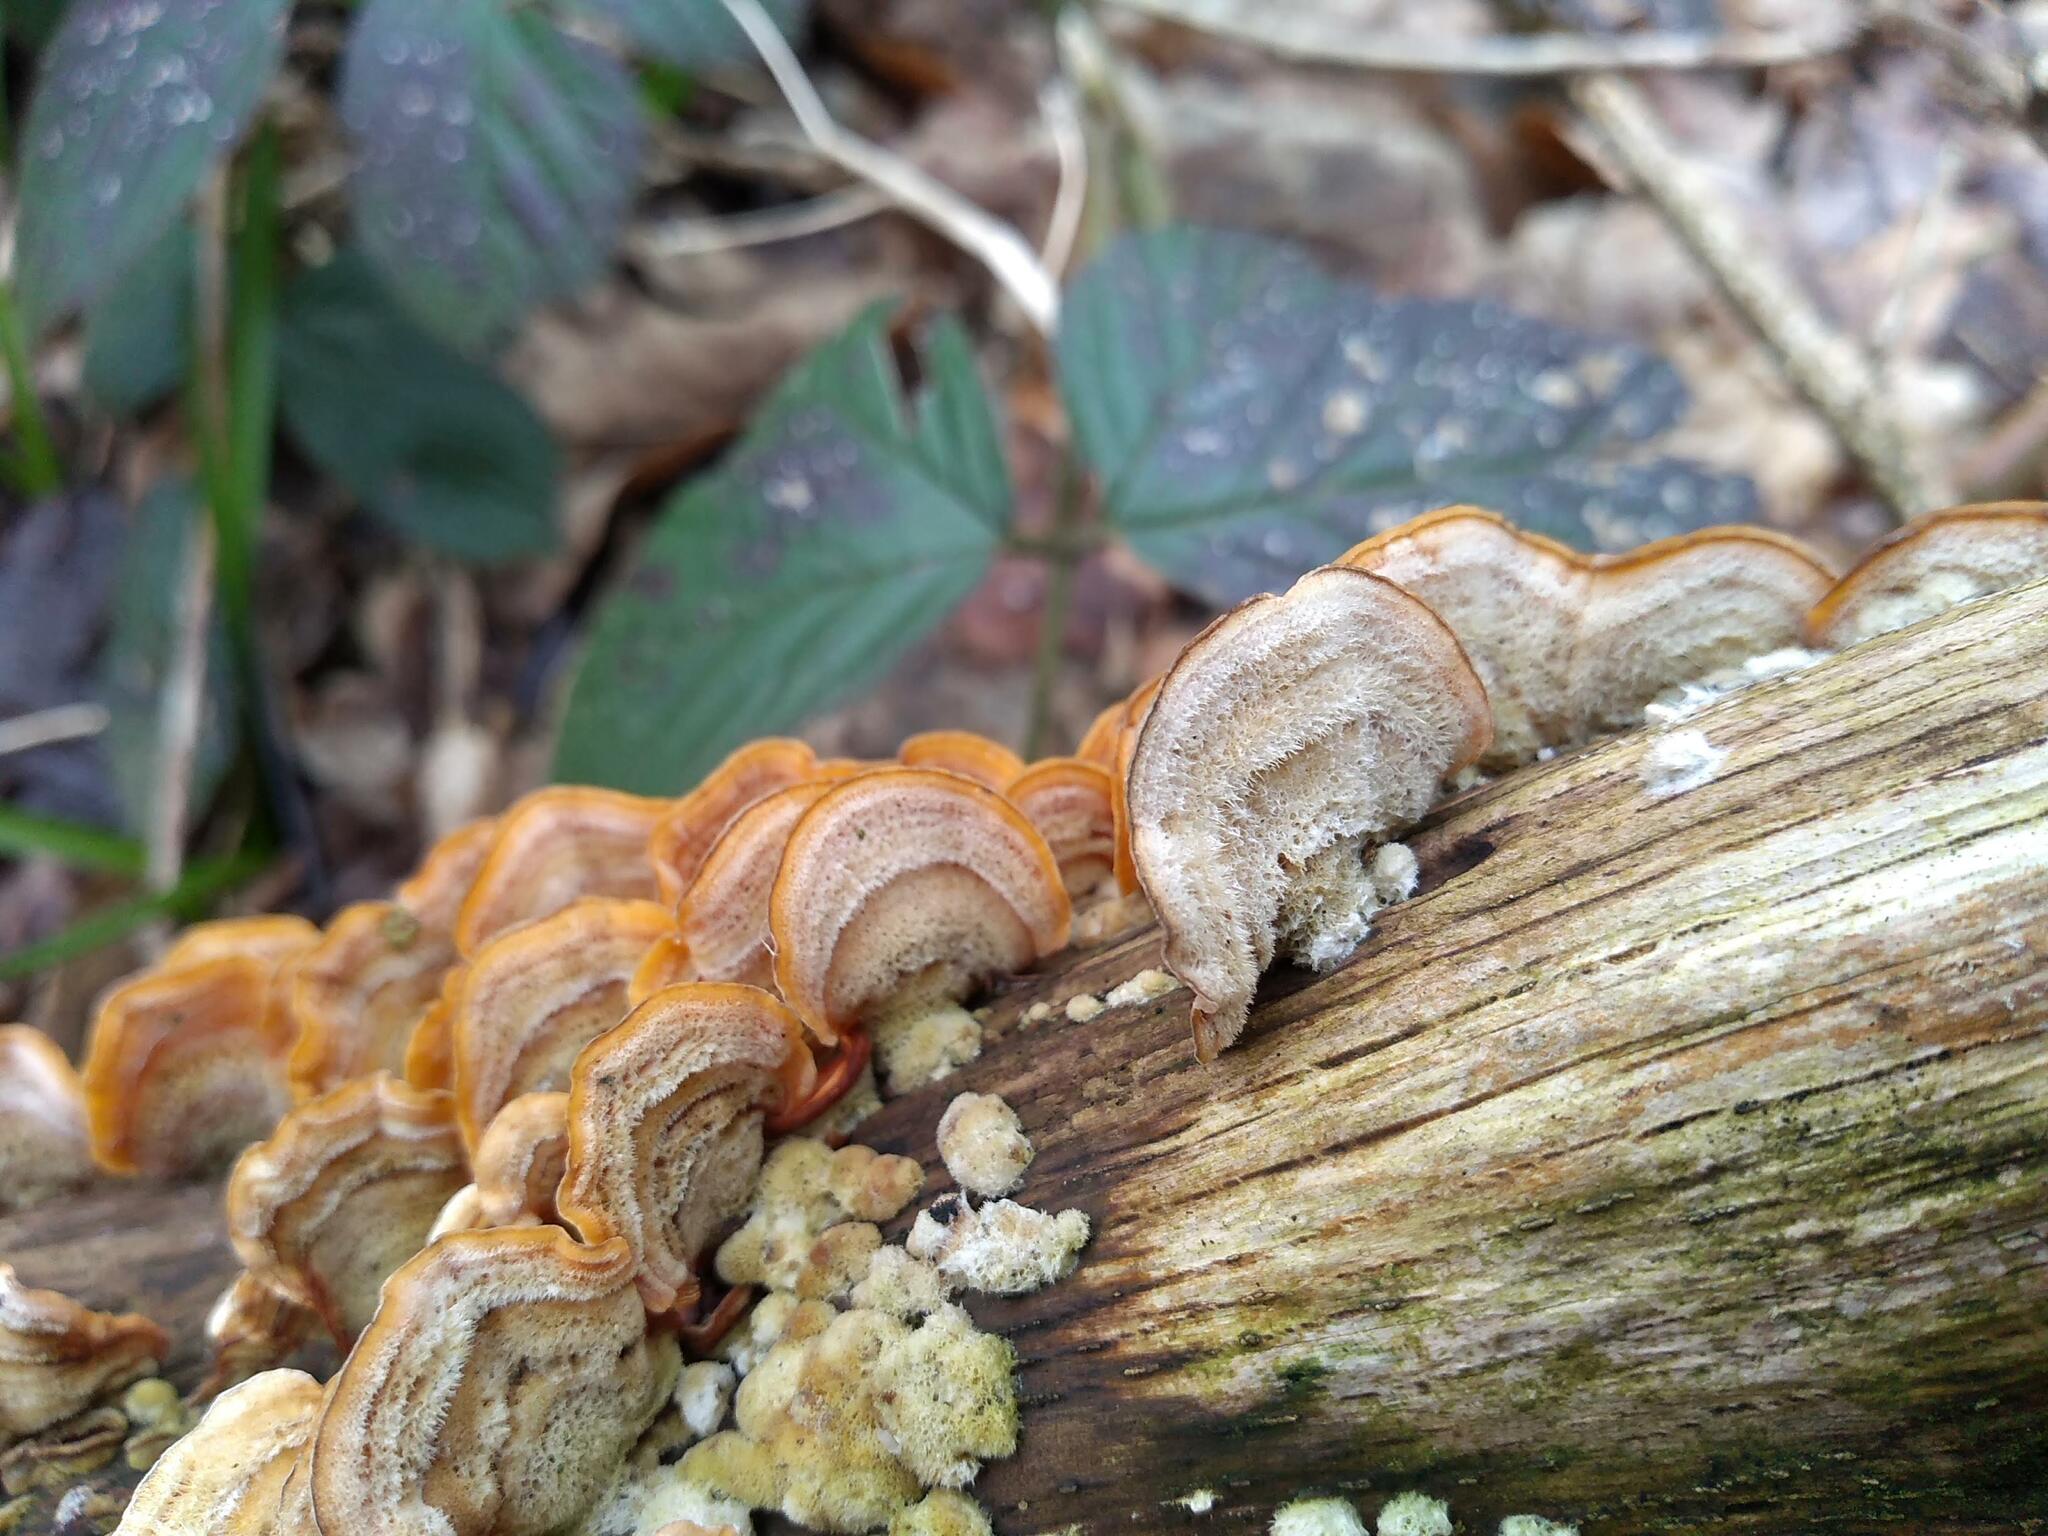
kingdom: Fungi
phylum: Basidiomycota
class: Agaricomycetes
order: Russulales
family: Stereaceae
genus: Stereum
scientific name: Stereum hirsutum
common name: Hairy curtain crust
